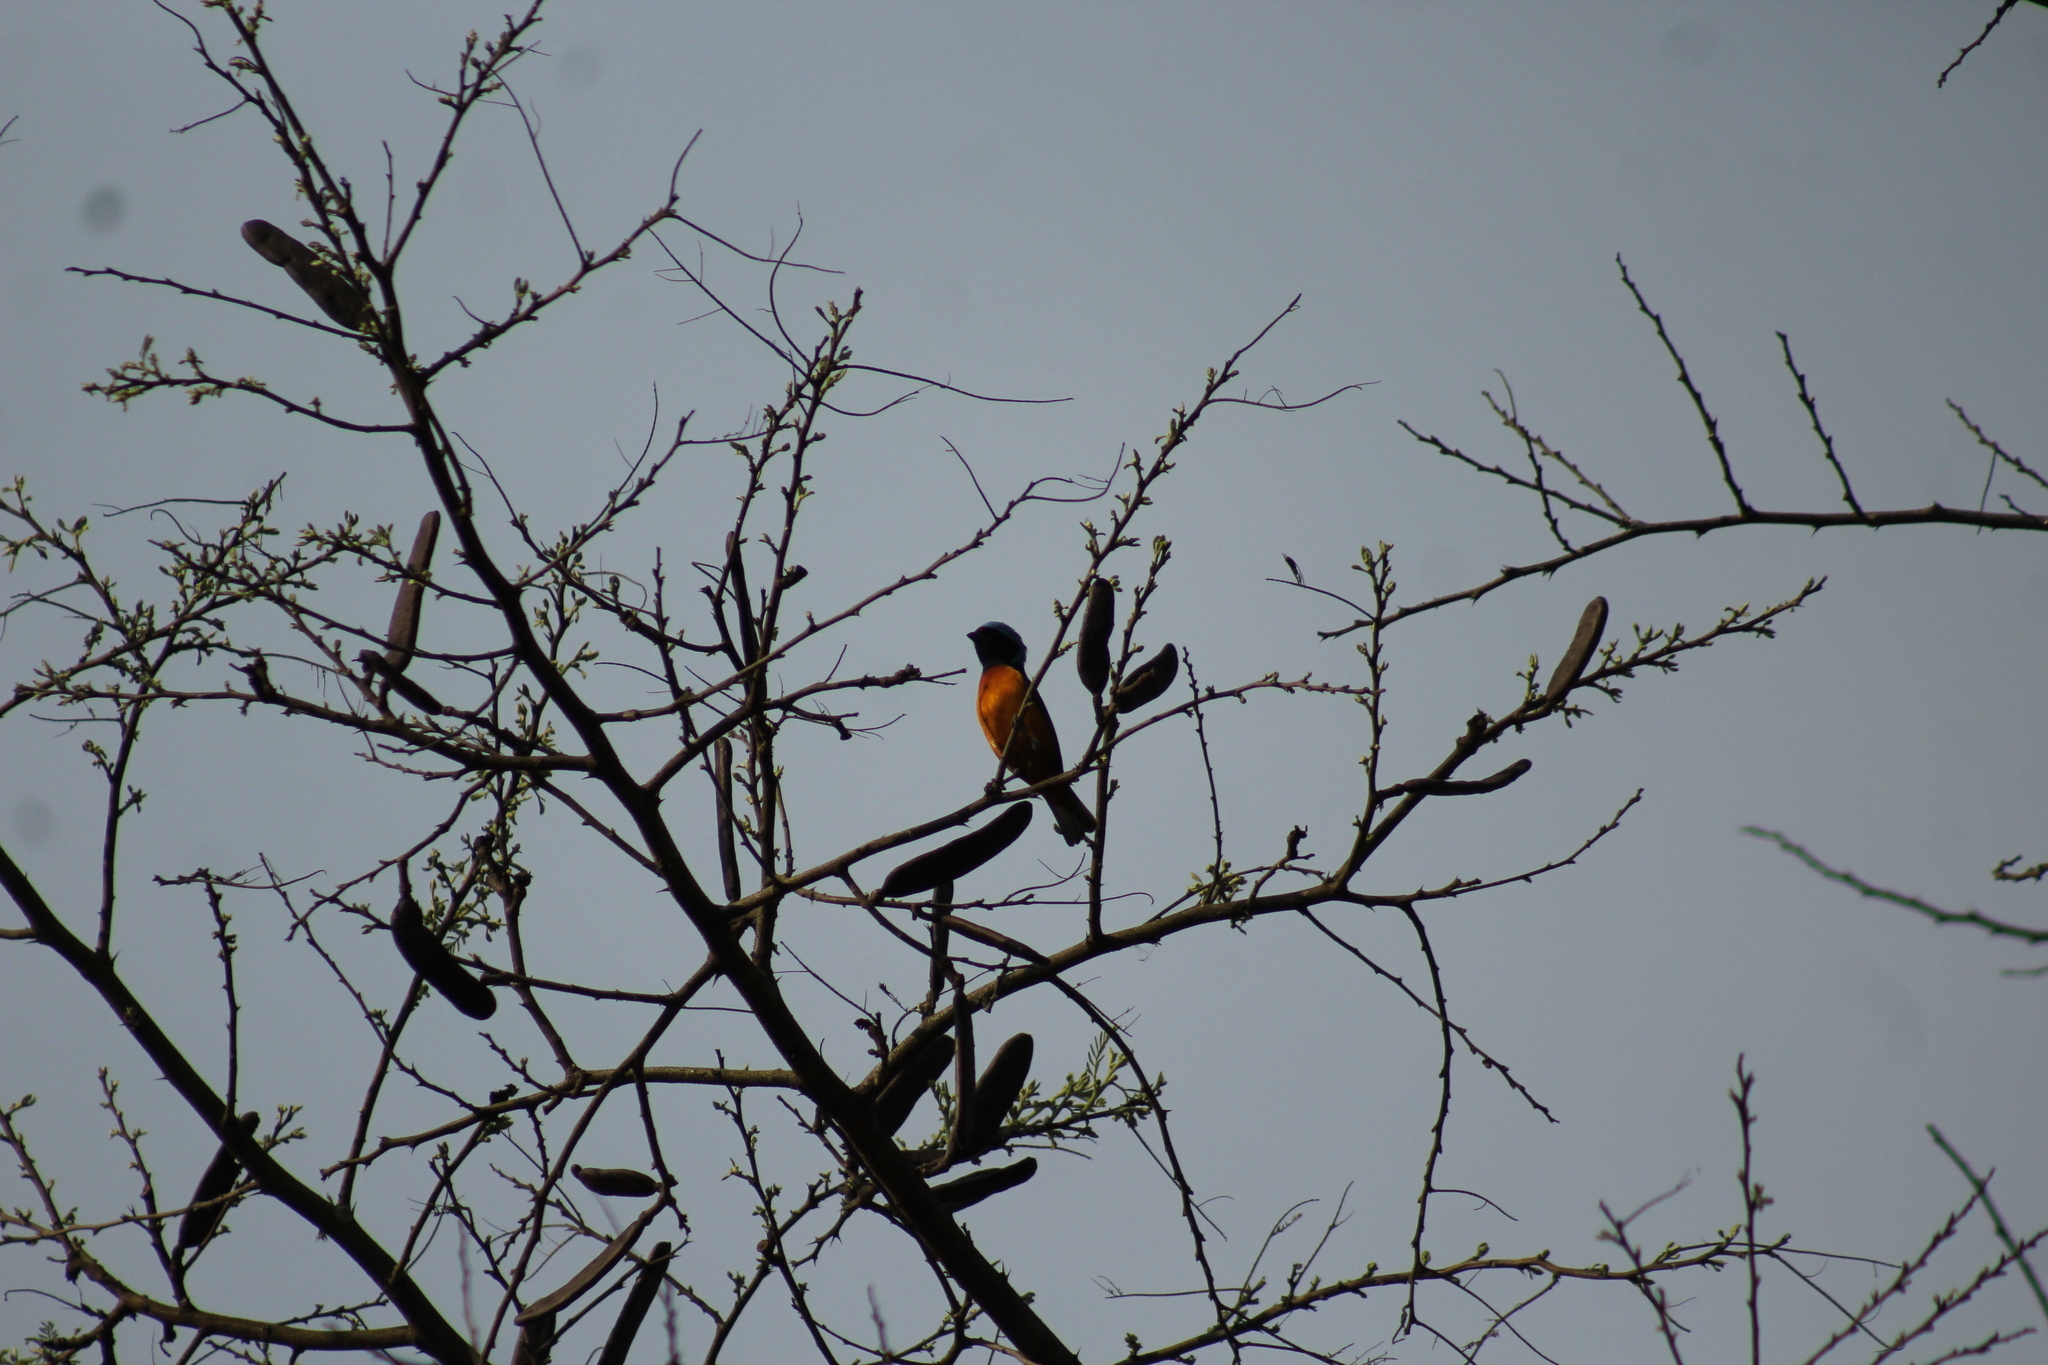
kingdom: Animalia
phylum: Chordata
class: Aves
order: Passeriformes
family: Fringillidae
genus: Euphonia
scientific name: Euphonia elegantissima
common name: Elegant euphonia
